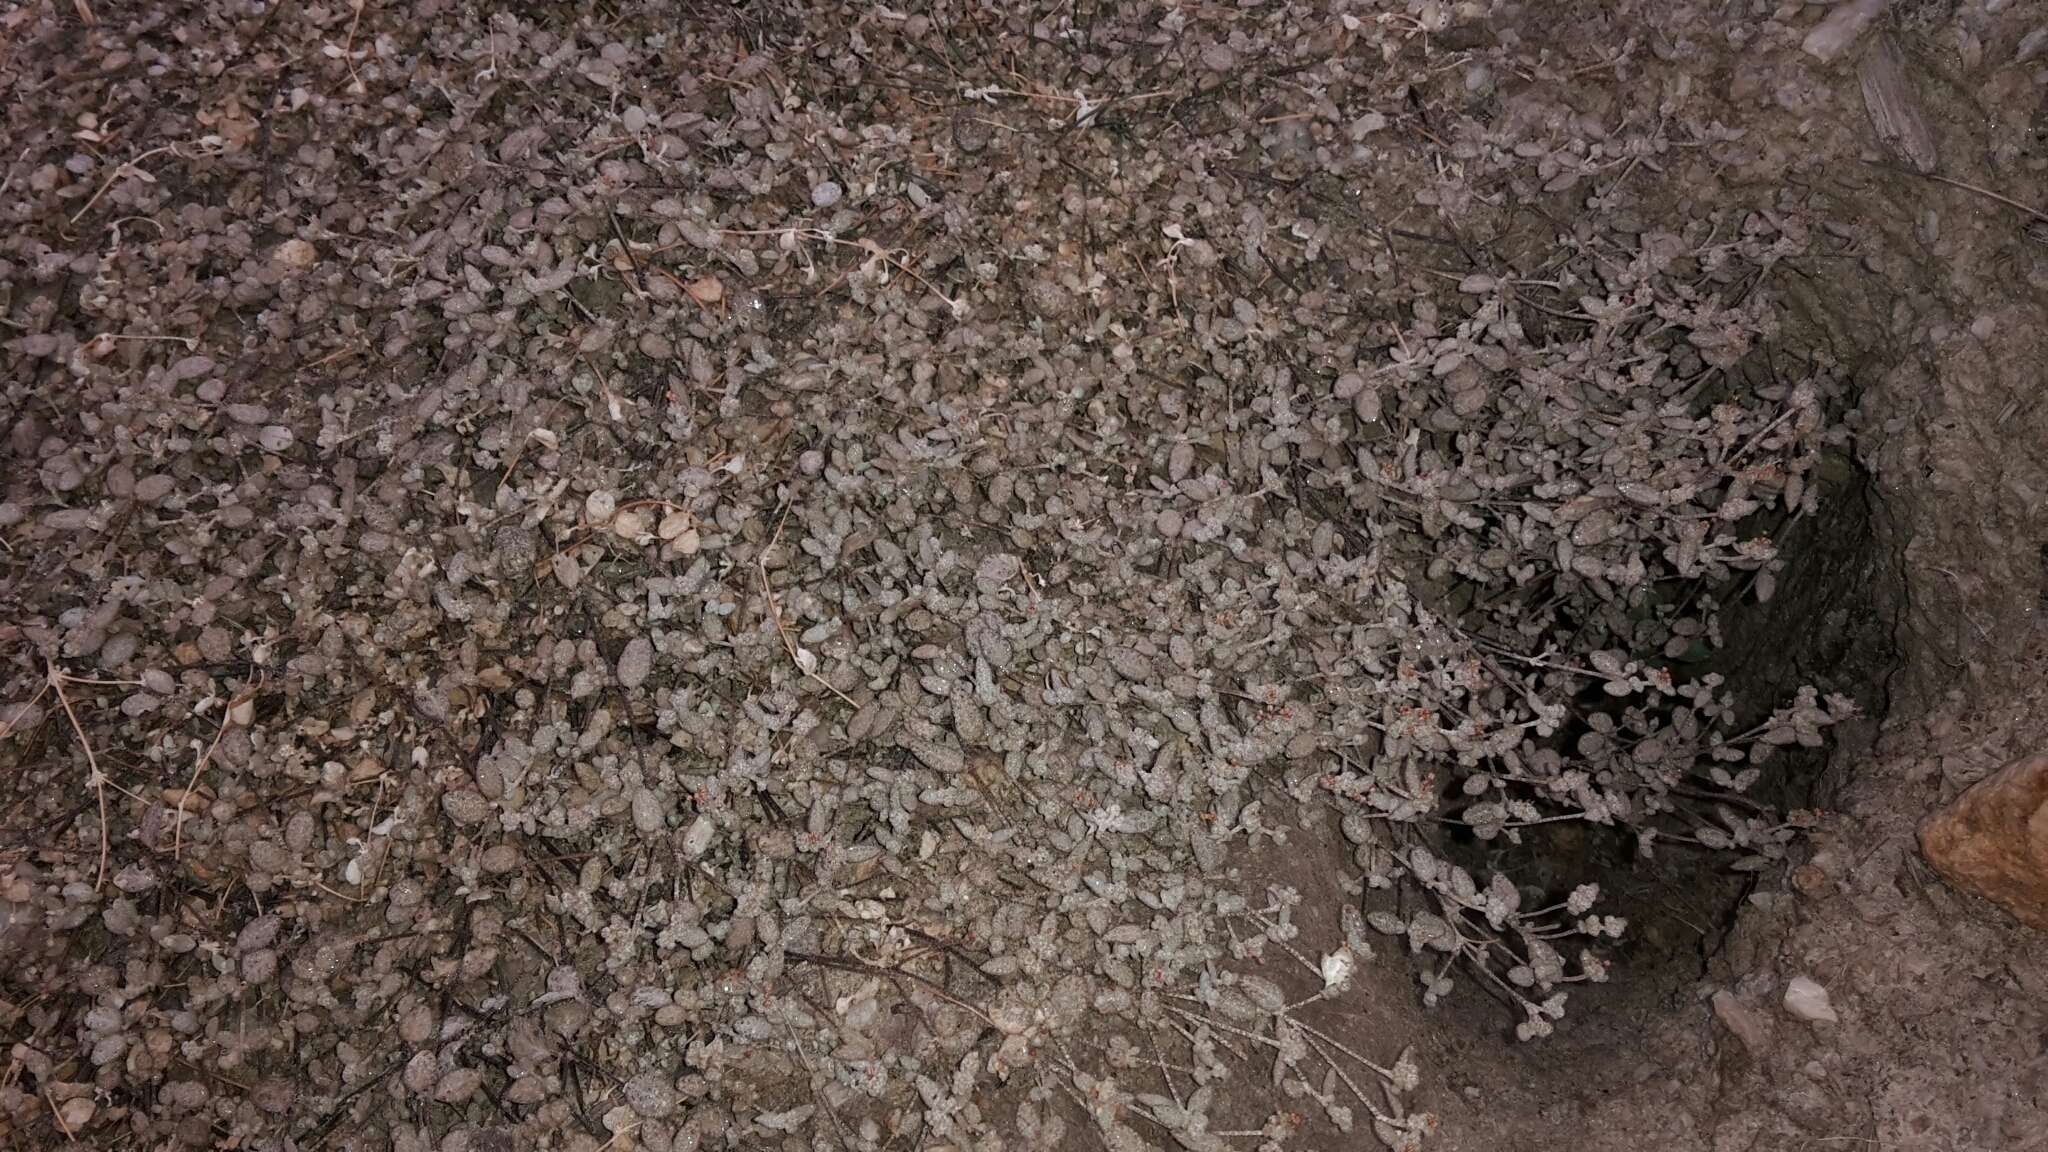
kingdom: Plantae
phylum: Tracheophyta
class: Magnoliopsida
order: Caryophyllales
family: Amaranthaceae
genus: Atriplex
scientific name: Atriplex buchananii
